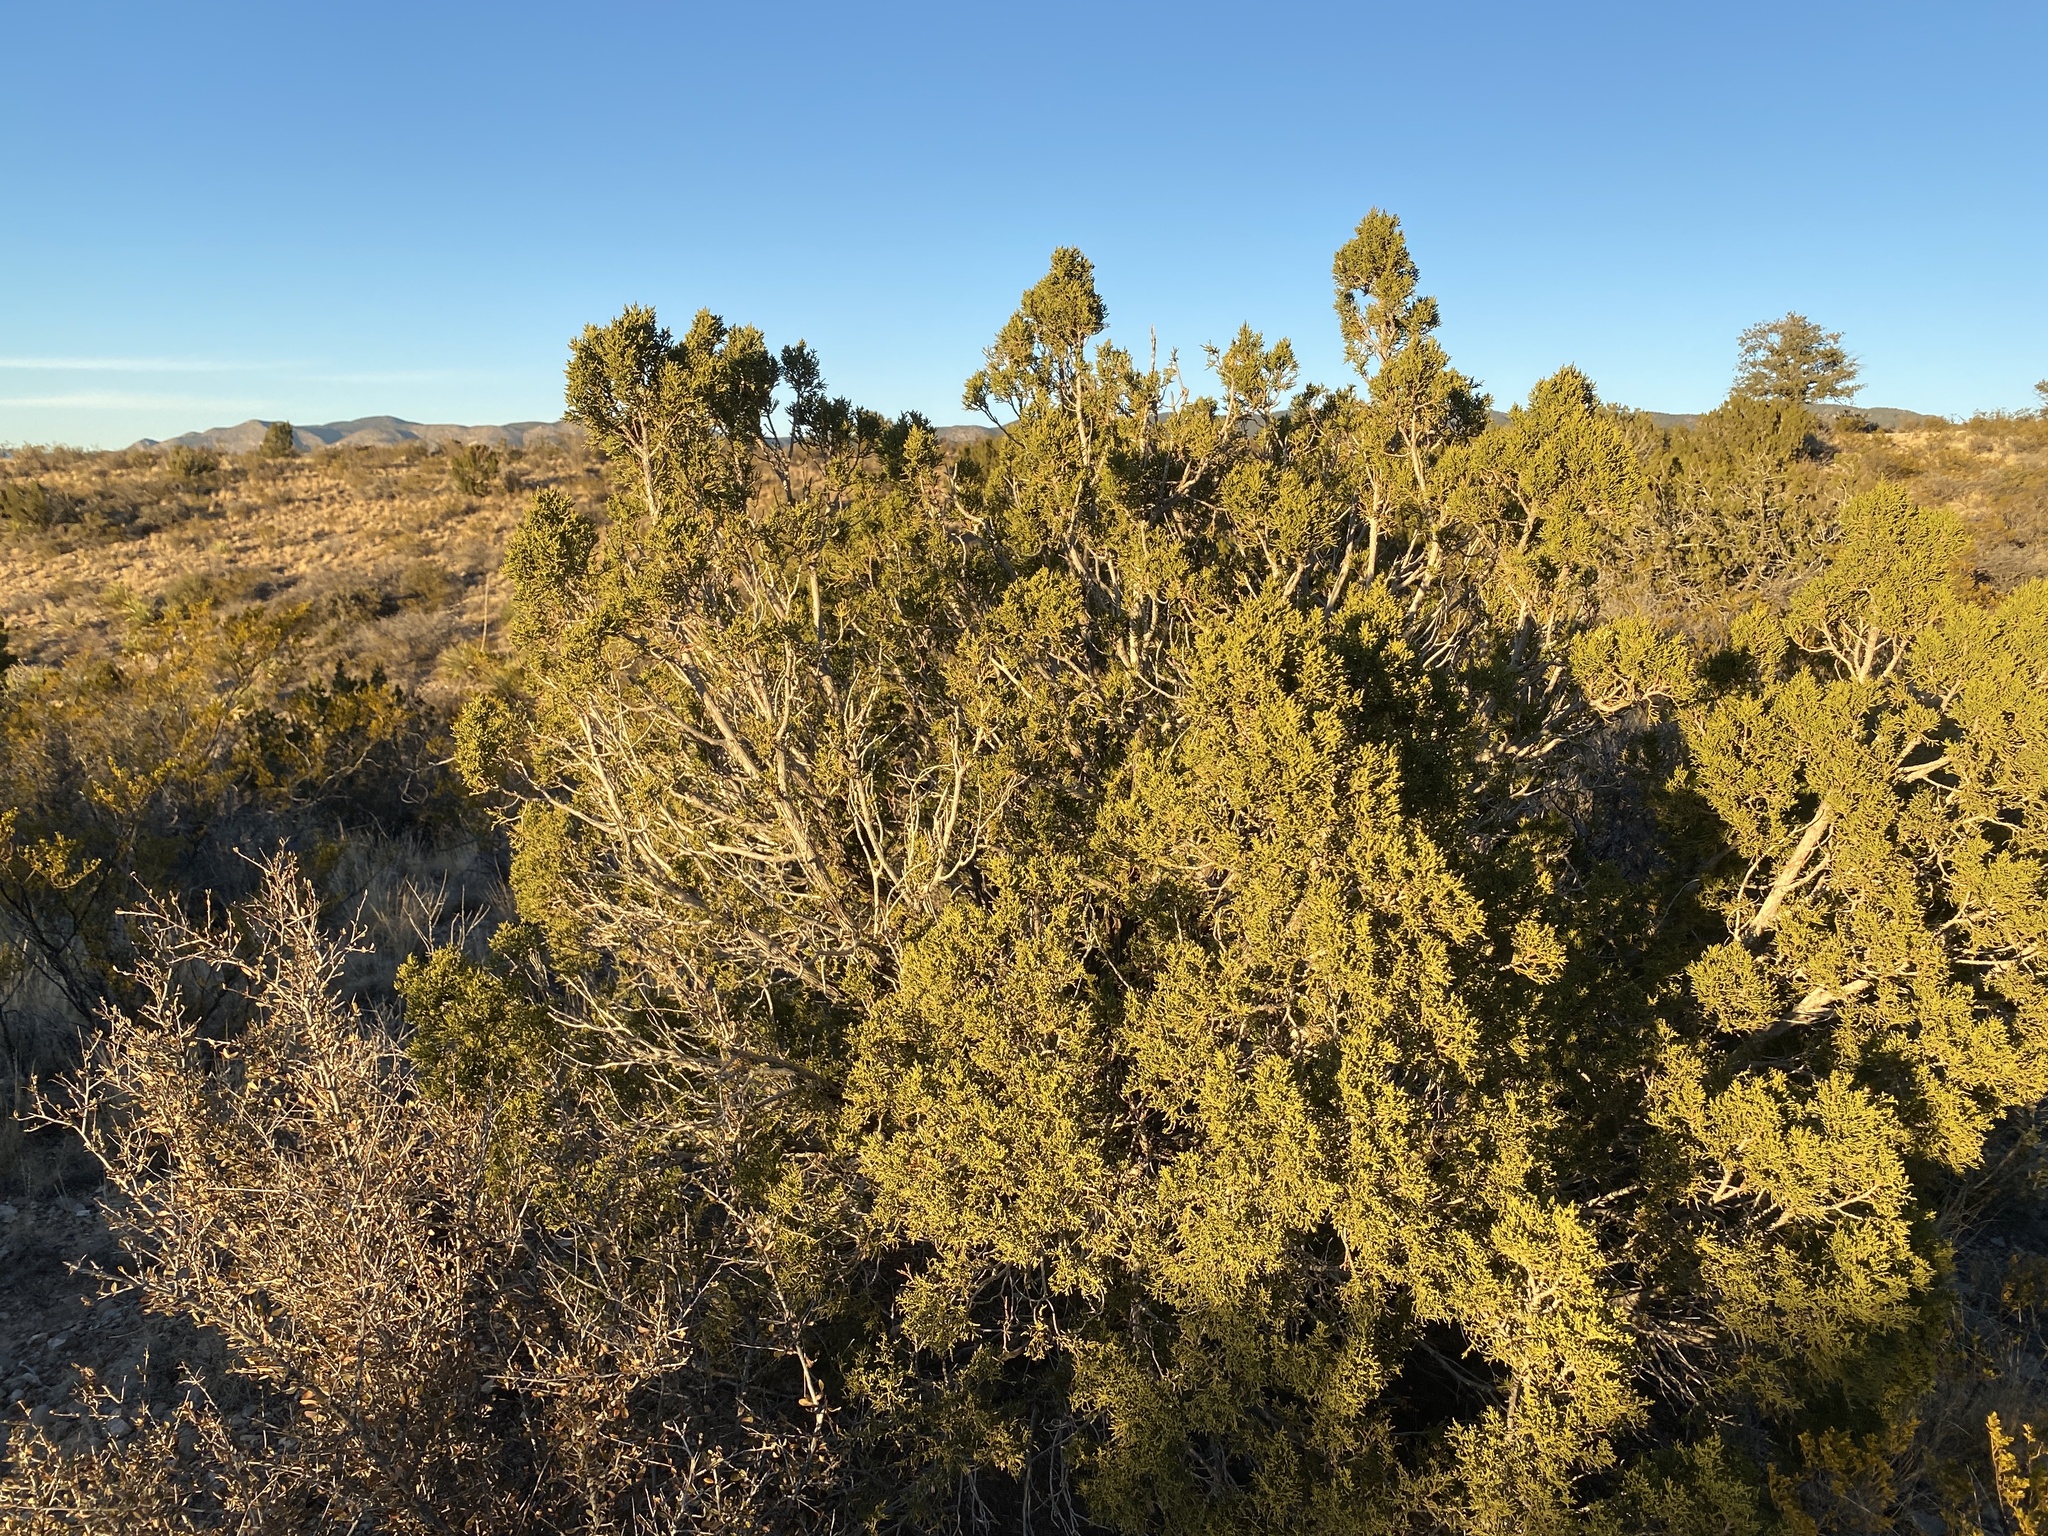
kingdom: Plantae
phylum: Tracheophyta
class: Pinopsida
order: Pinales
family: Cupressaceae
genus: Juniperus
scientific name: Juniperus monosperma
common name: One-seed juniper
